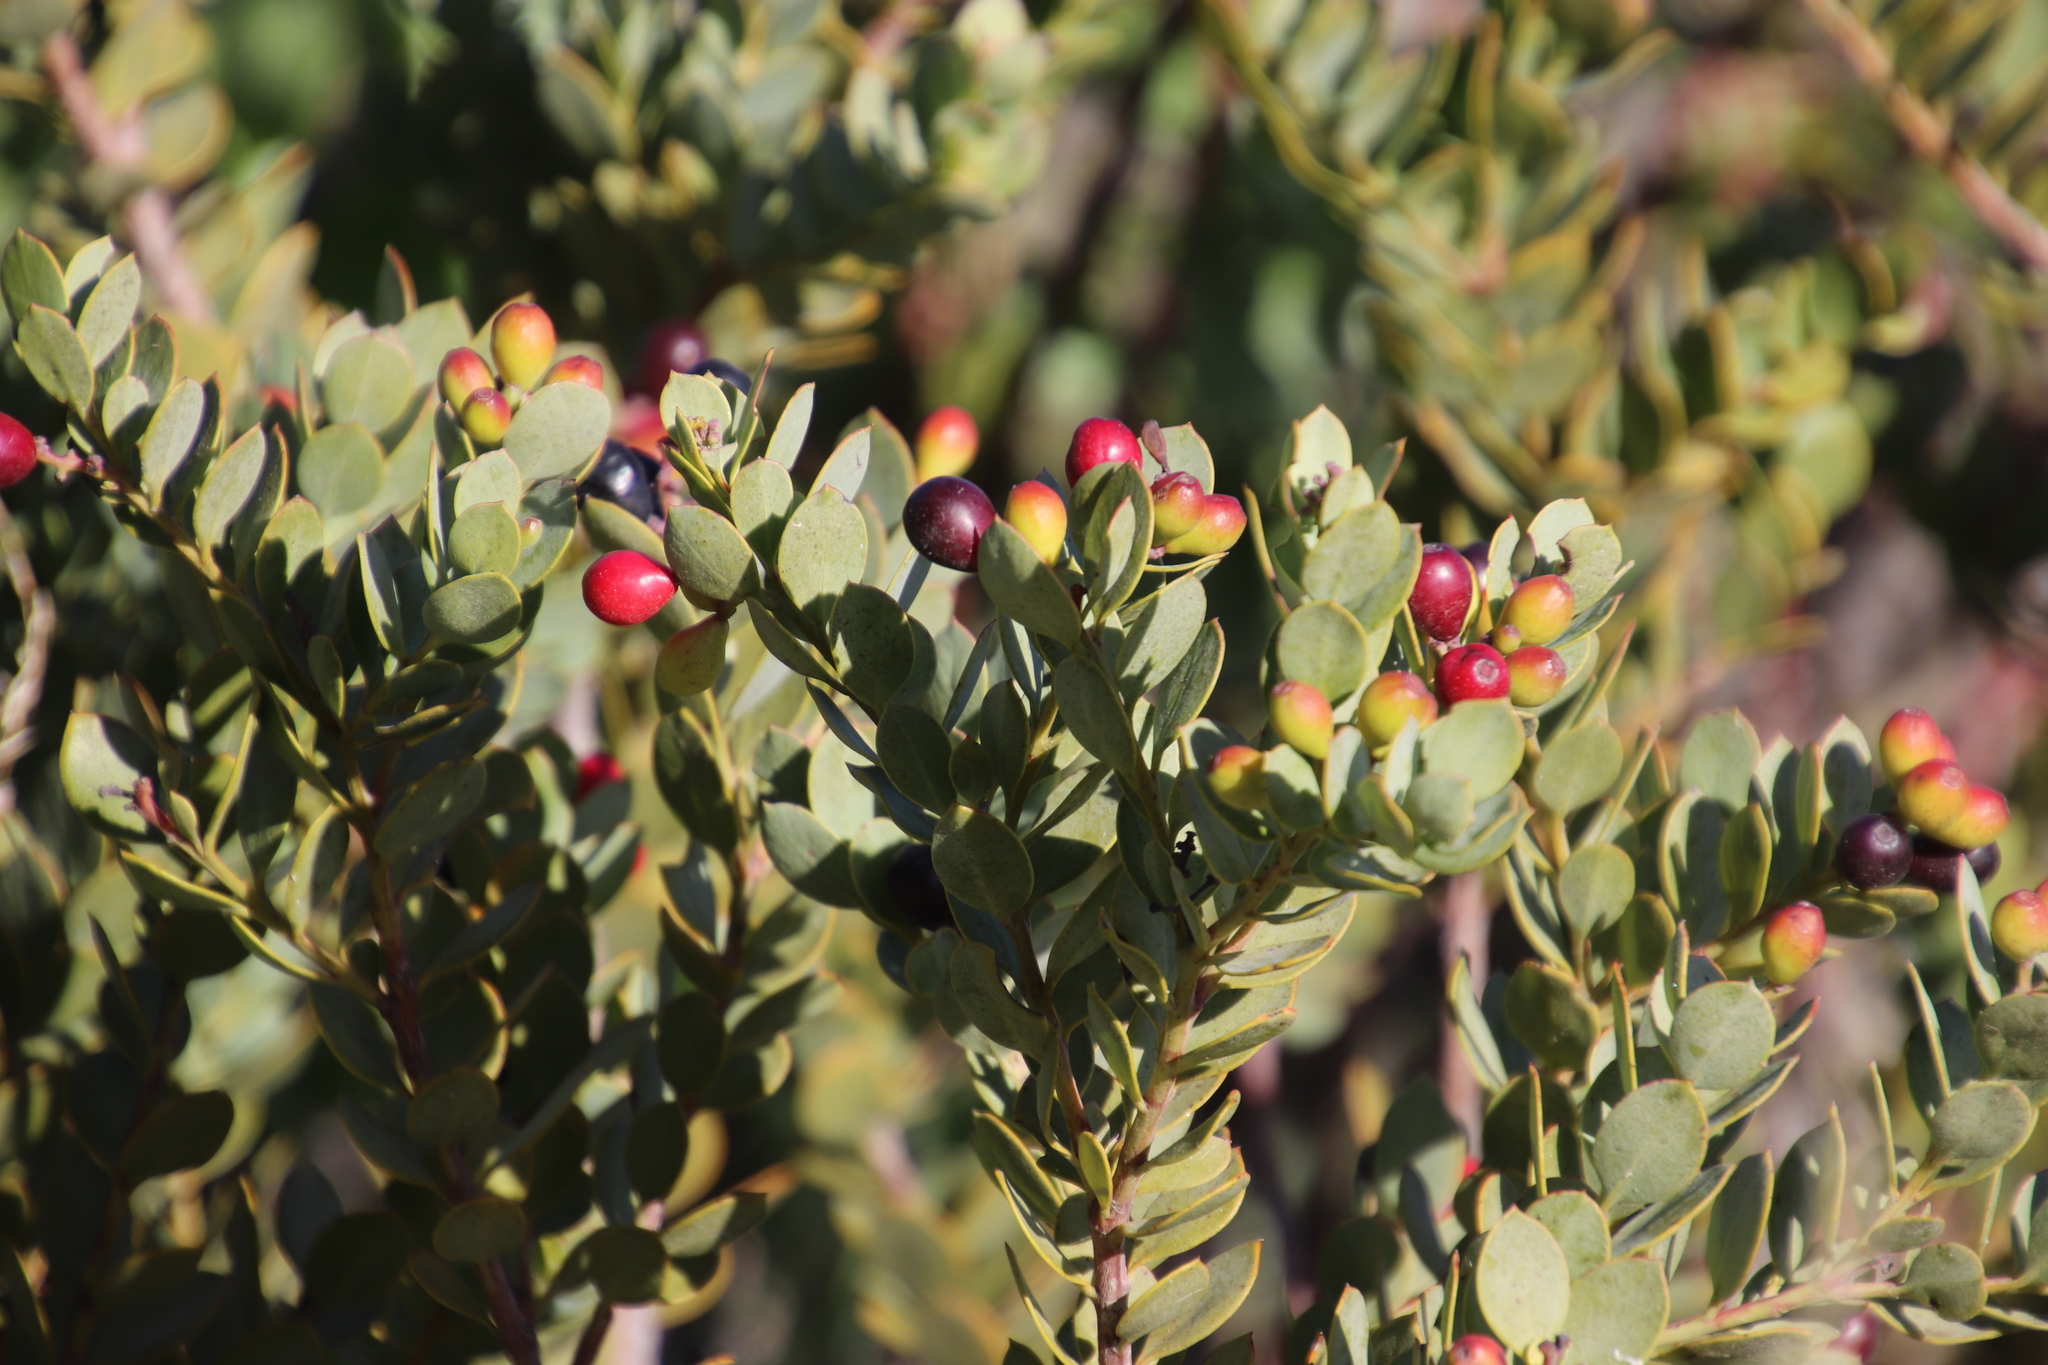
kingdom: Plantae
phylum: Tracheophyta
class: Magnoliopsida
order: Santalales
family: Santalaceae
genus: Osyris
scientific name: Osyris compressa
